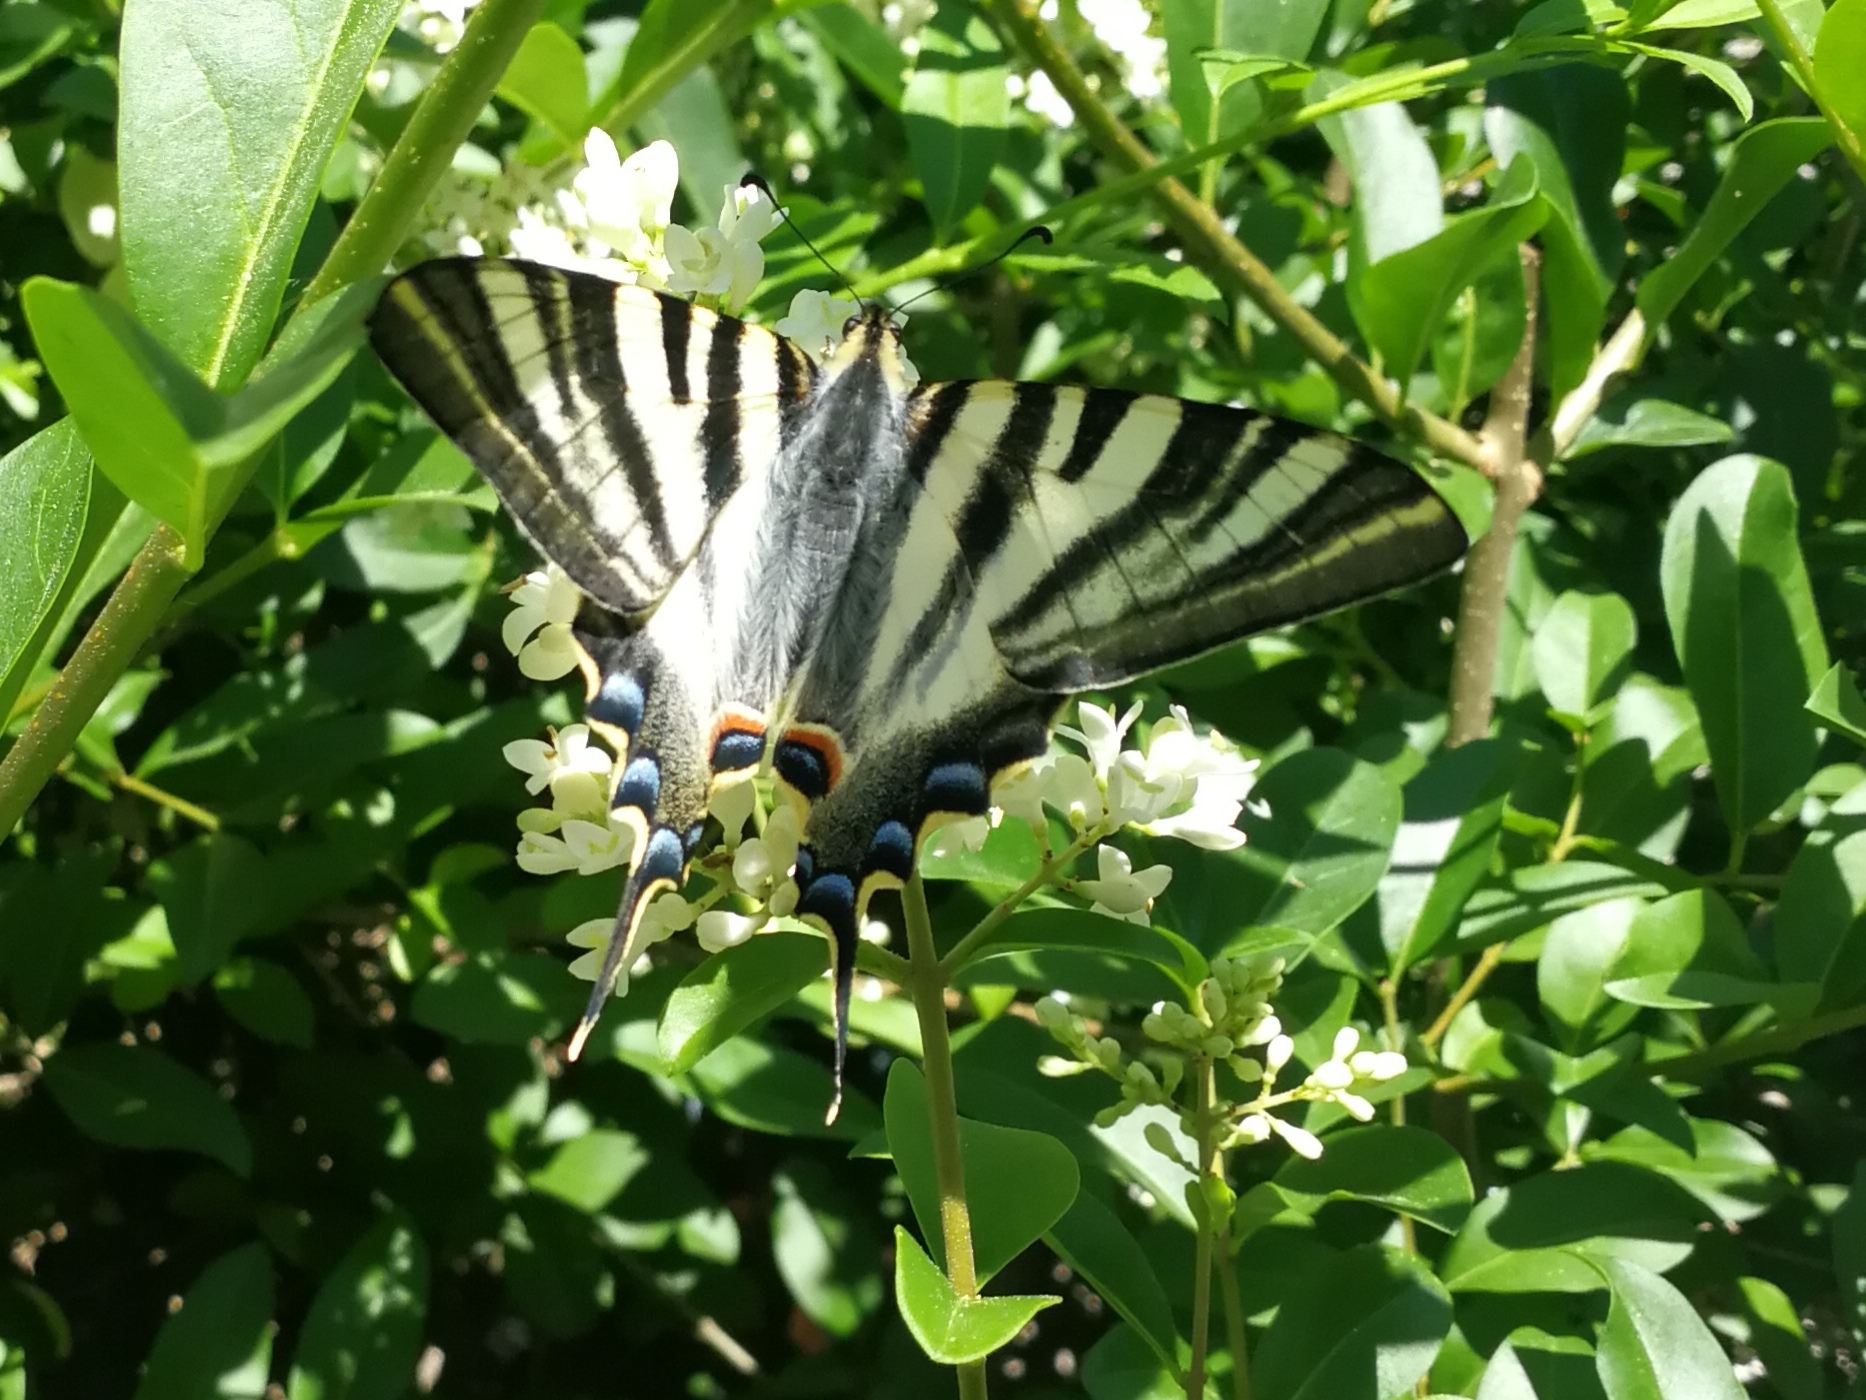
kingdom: Animalia
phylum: Arthropoda
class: Insecta
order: Lepidoptera
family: Papilionidae
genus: Iphiclides
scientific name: Iphiclides feisthamelii
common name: Iberian scarce swallowtail
